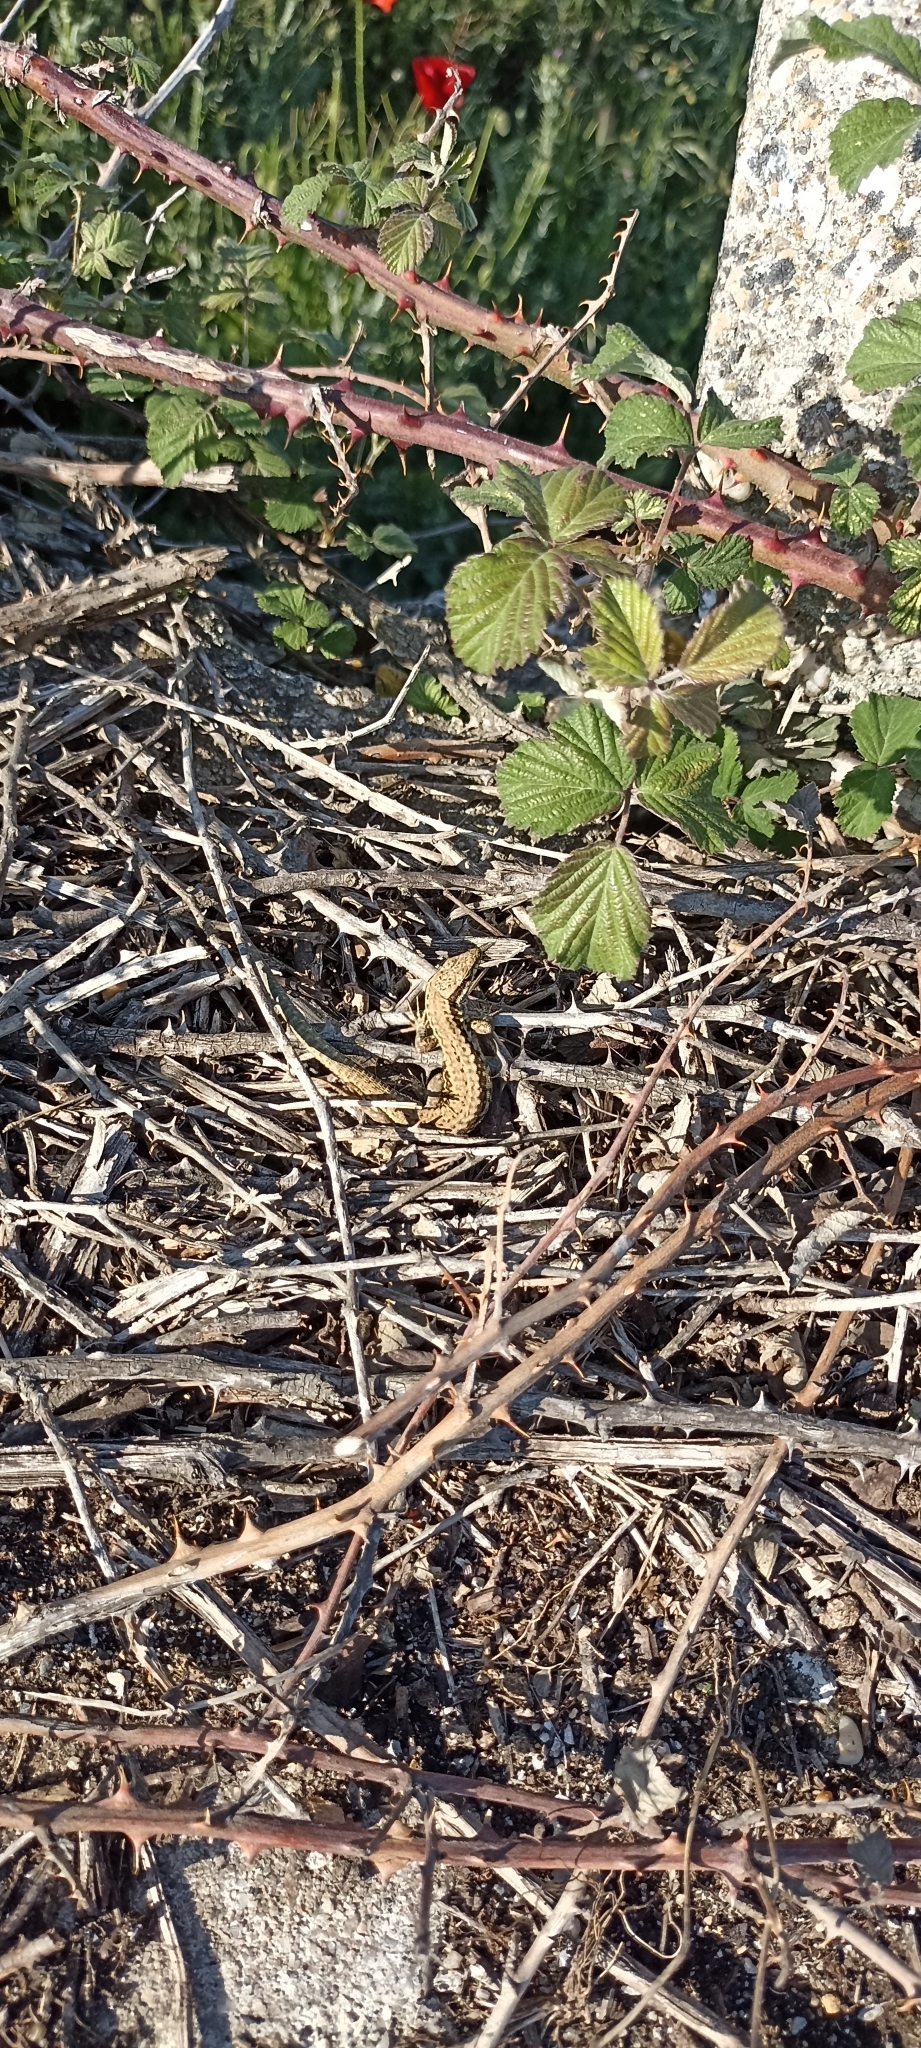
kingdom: Animalia
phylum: Chordata
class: Squamata
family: Lacertidae
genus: Podarcis
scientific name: Podarcis muralis
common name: Common wall lizard
